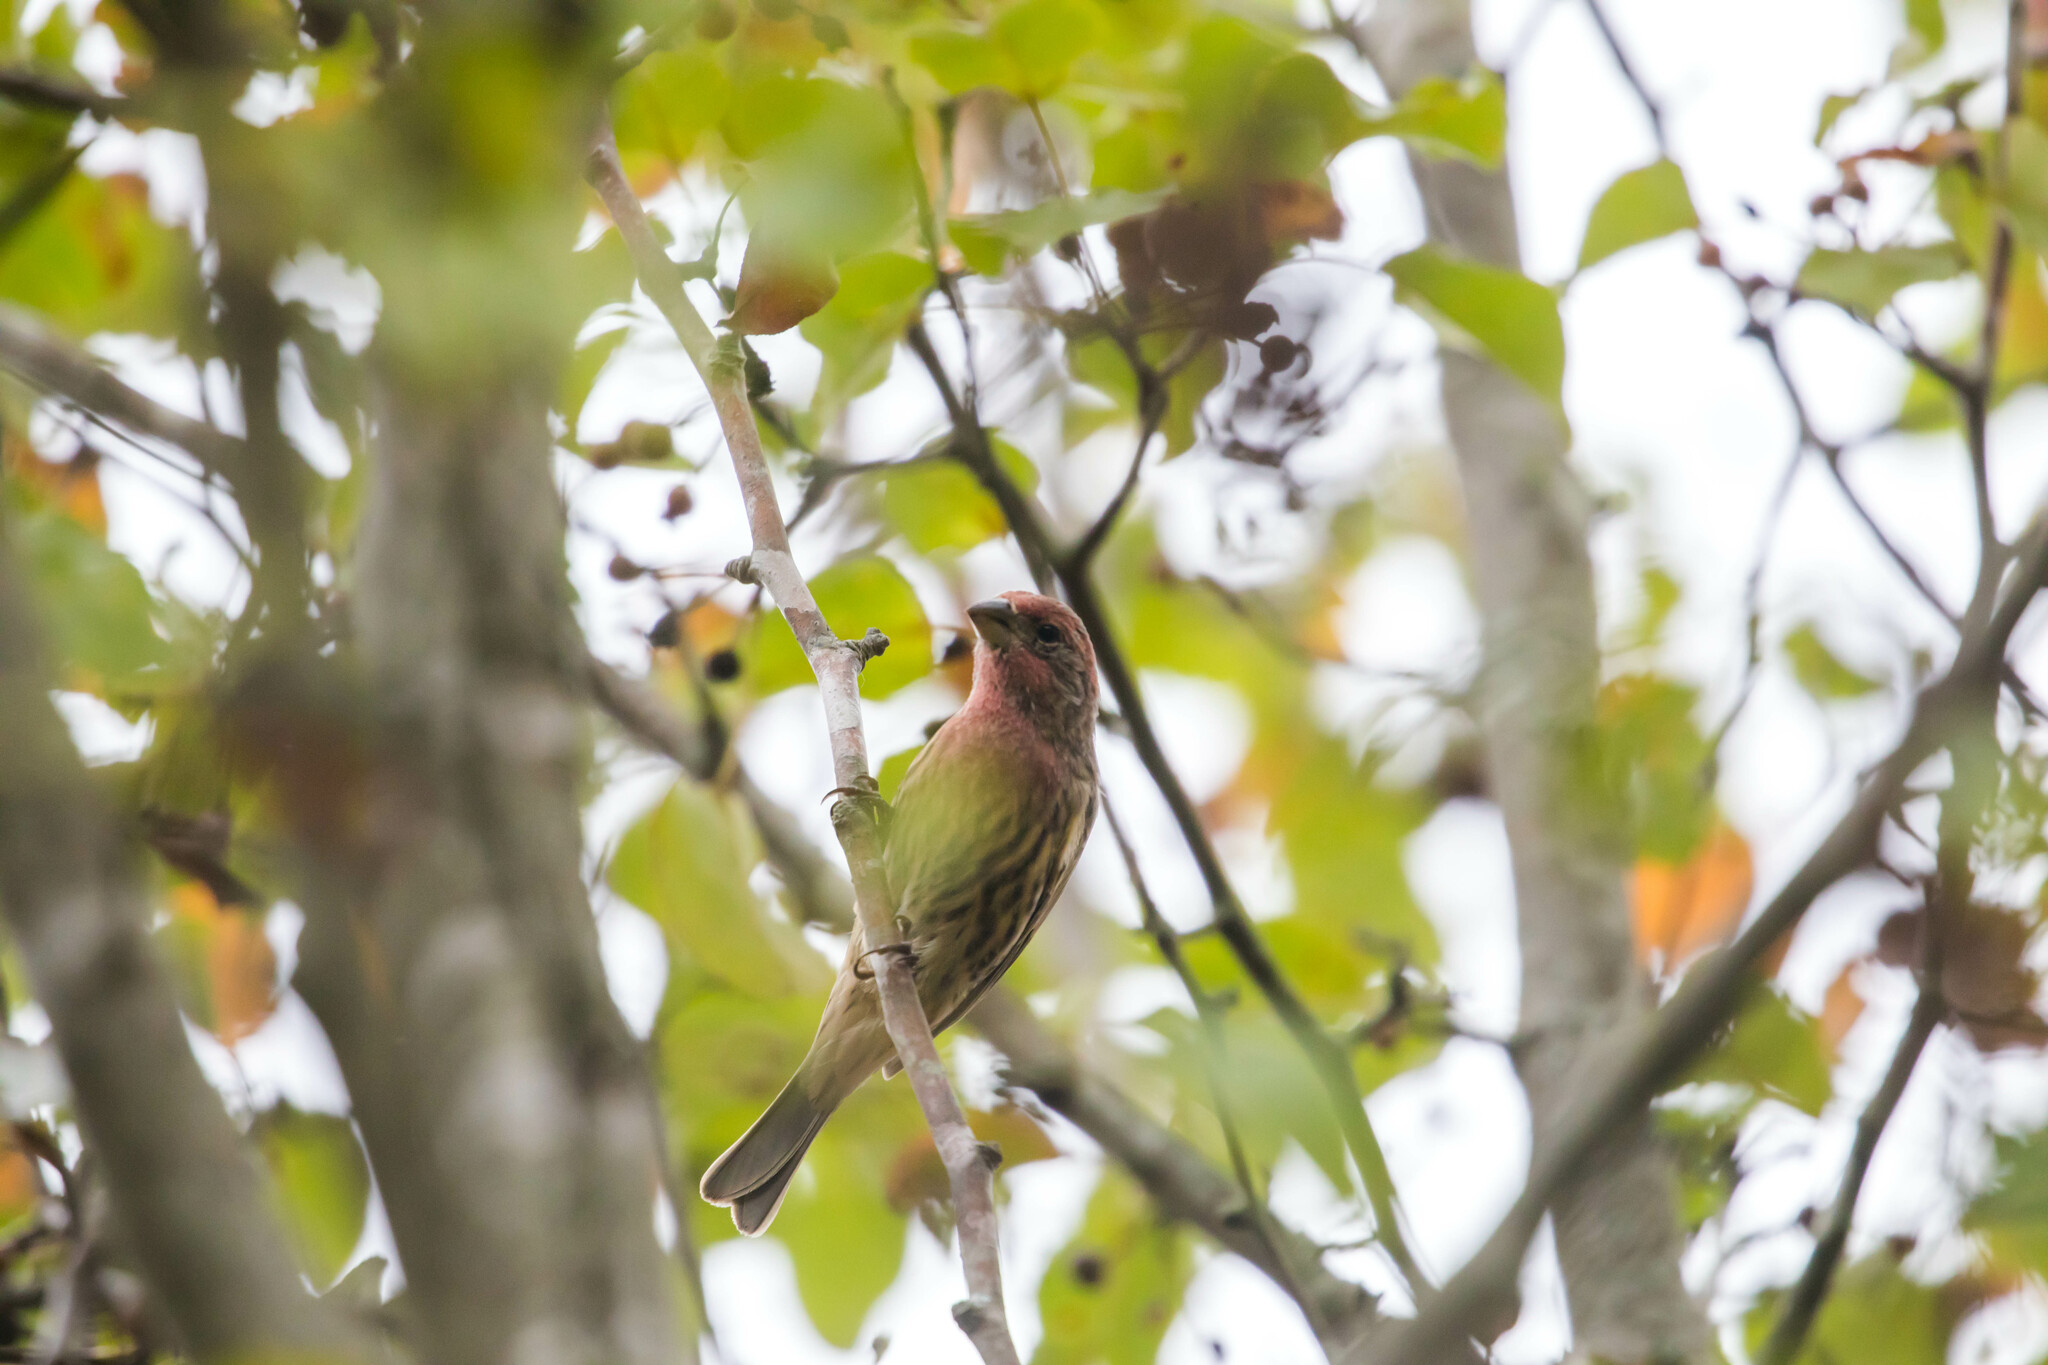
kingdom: Animalia
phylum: Chordata
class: Aves
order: Passeriformes
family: Fringillidae
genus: Haemorhous
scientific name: Haemorhous mexicanus
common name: House finch
